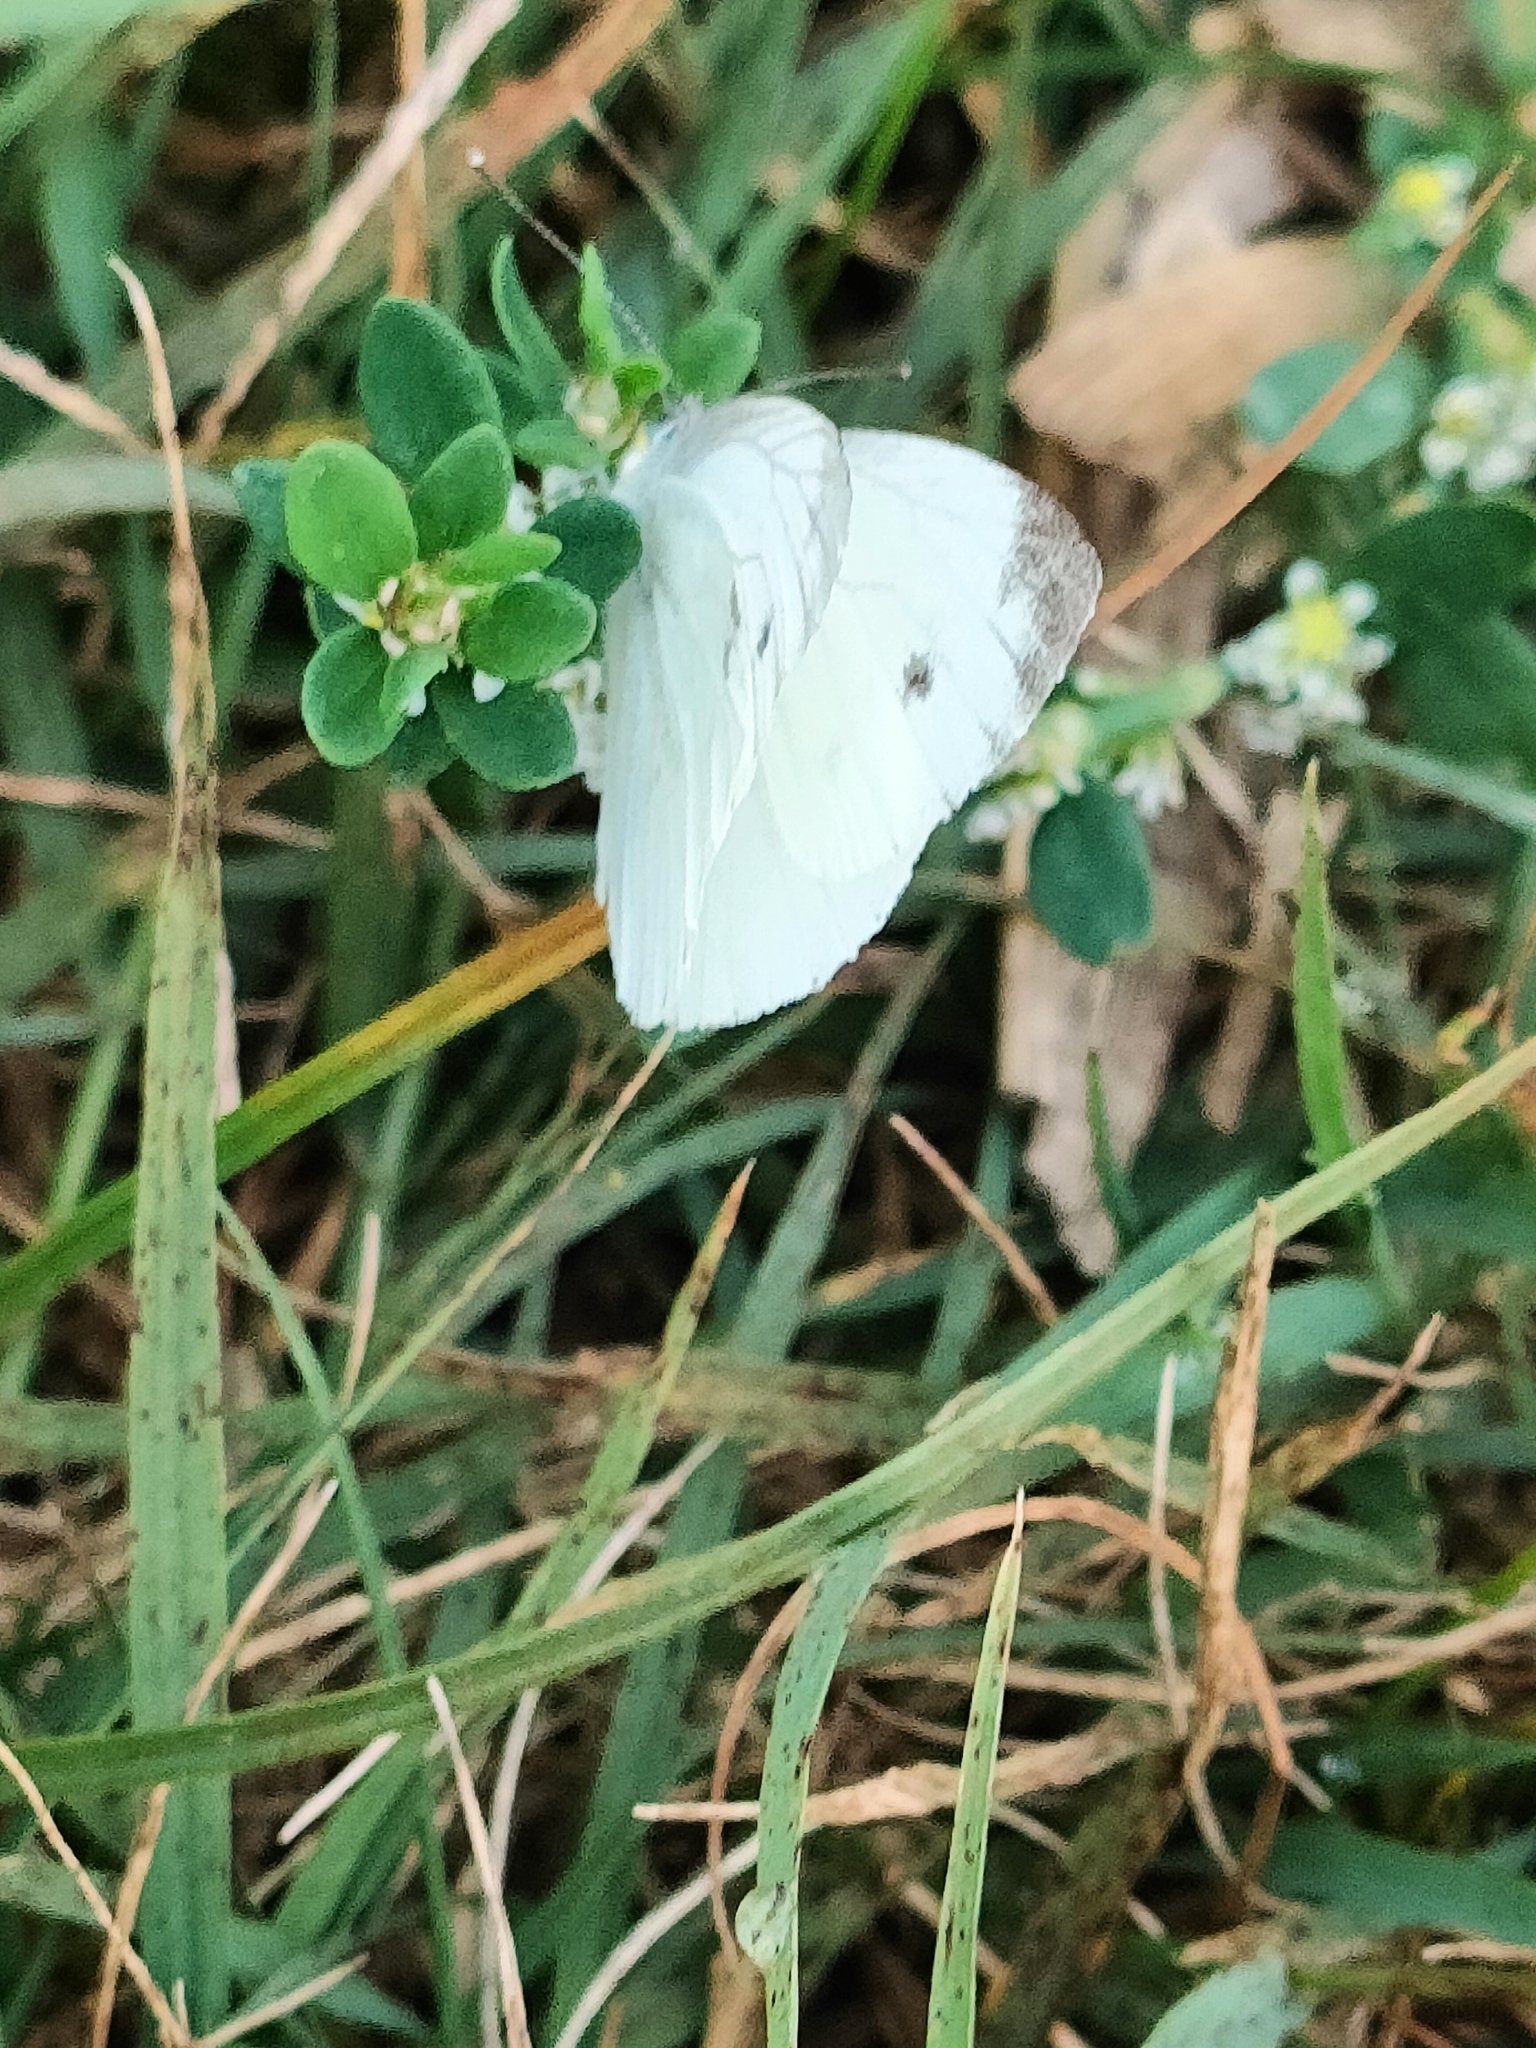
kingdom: Animalia
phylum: Arthropoda
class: Insecta
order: Lepidoptera
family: Pieridae
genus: Pieris
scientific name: Pieris napi
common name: Green-veined white
